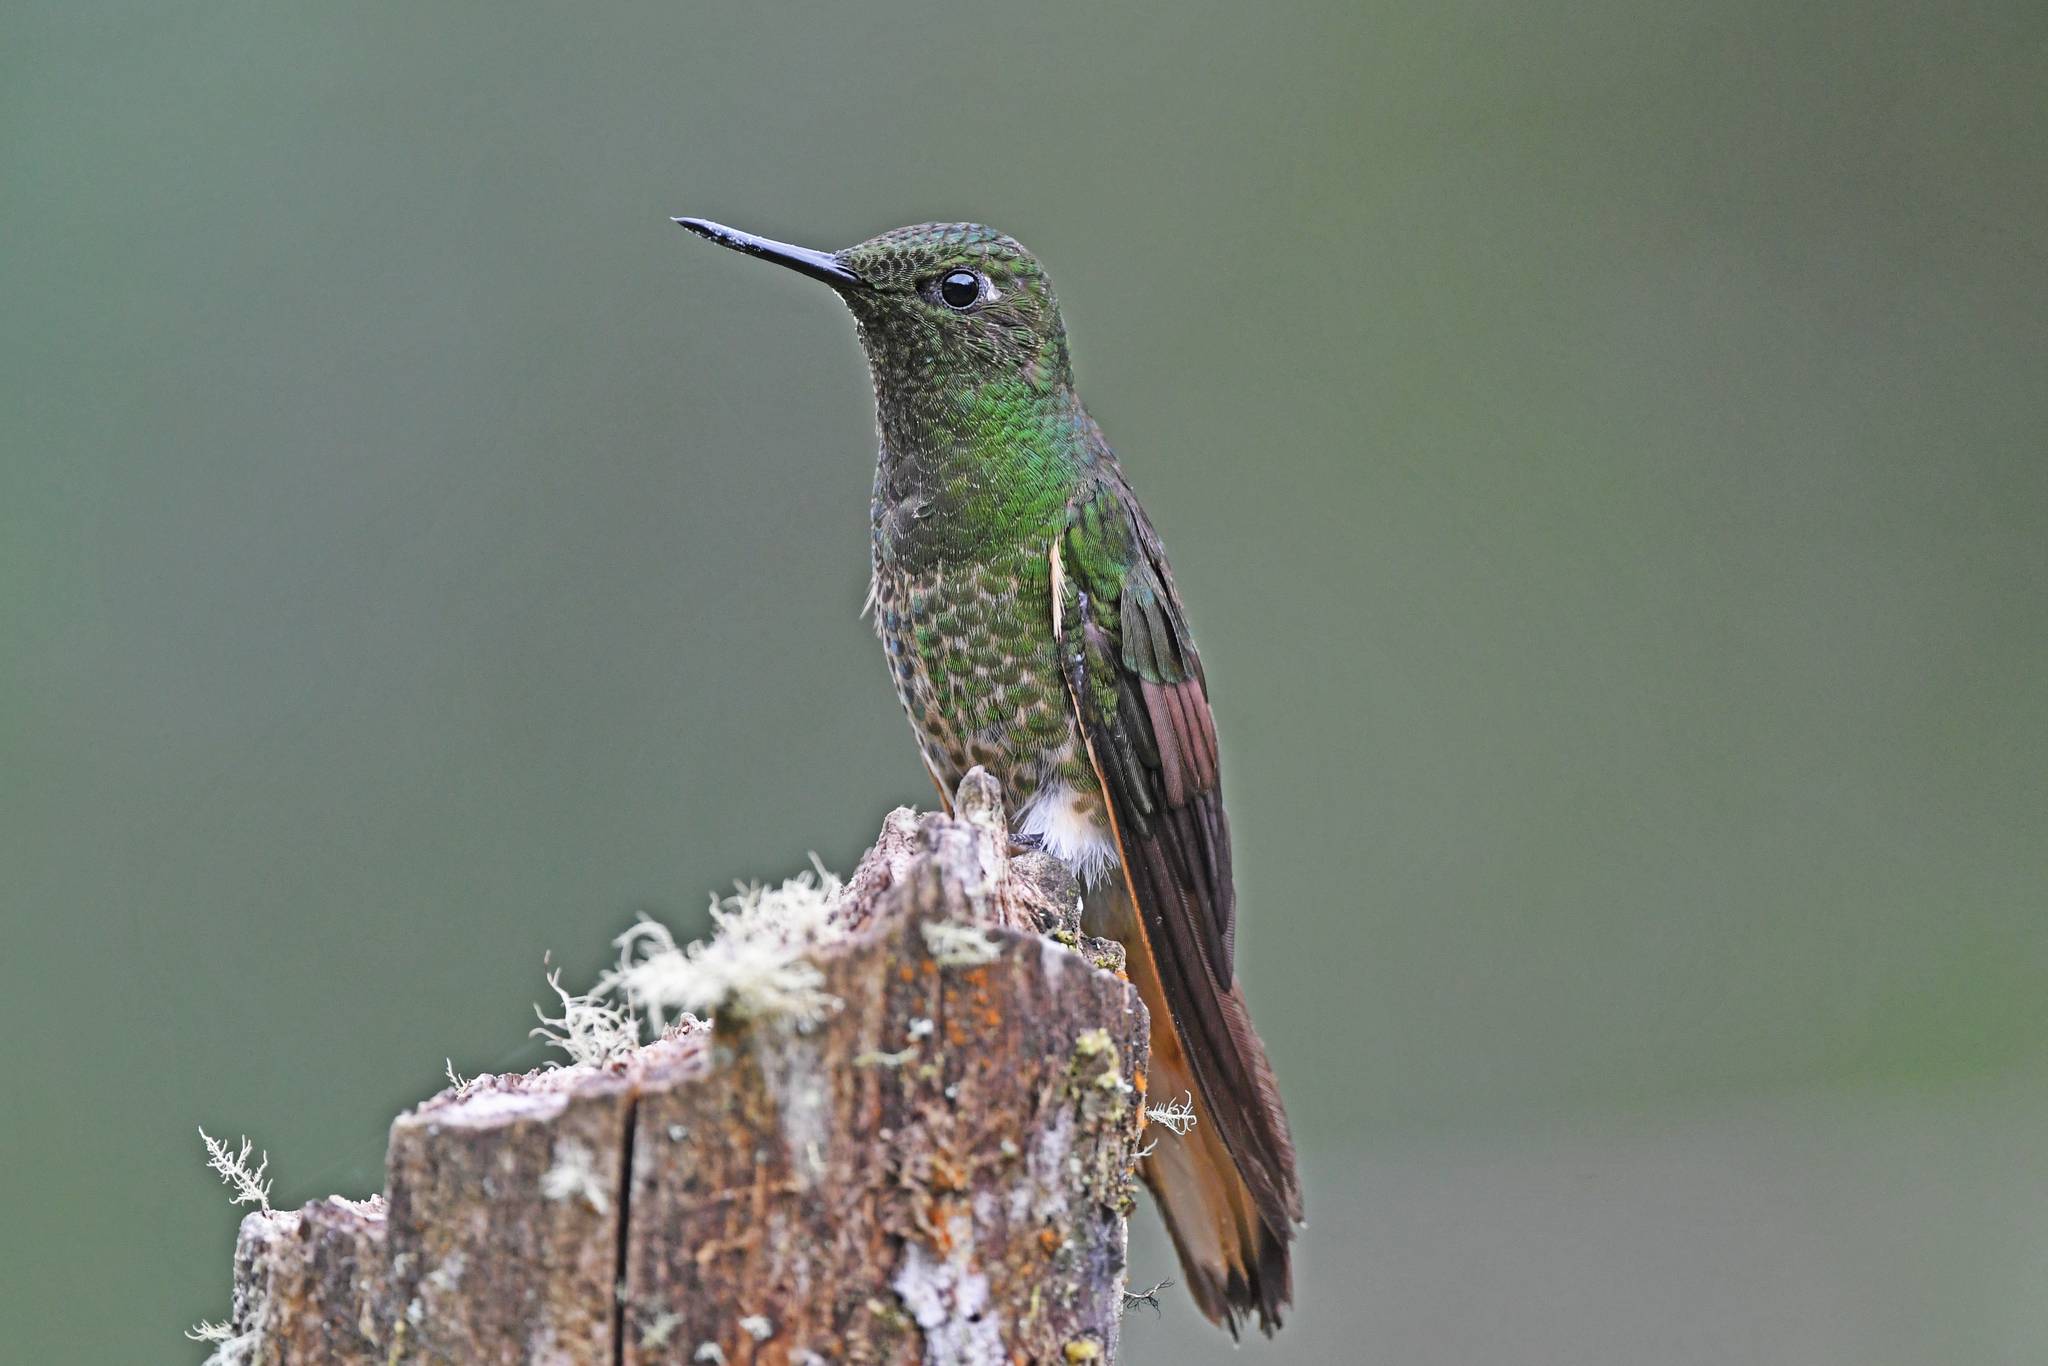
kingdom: Animalia
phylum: Chordata
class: Aves
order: Apodiformes
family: Trochilidae
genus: Boissonneaua
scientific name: Boissonneaua flavescens
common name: Buff-tailed coronet
